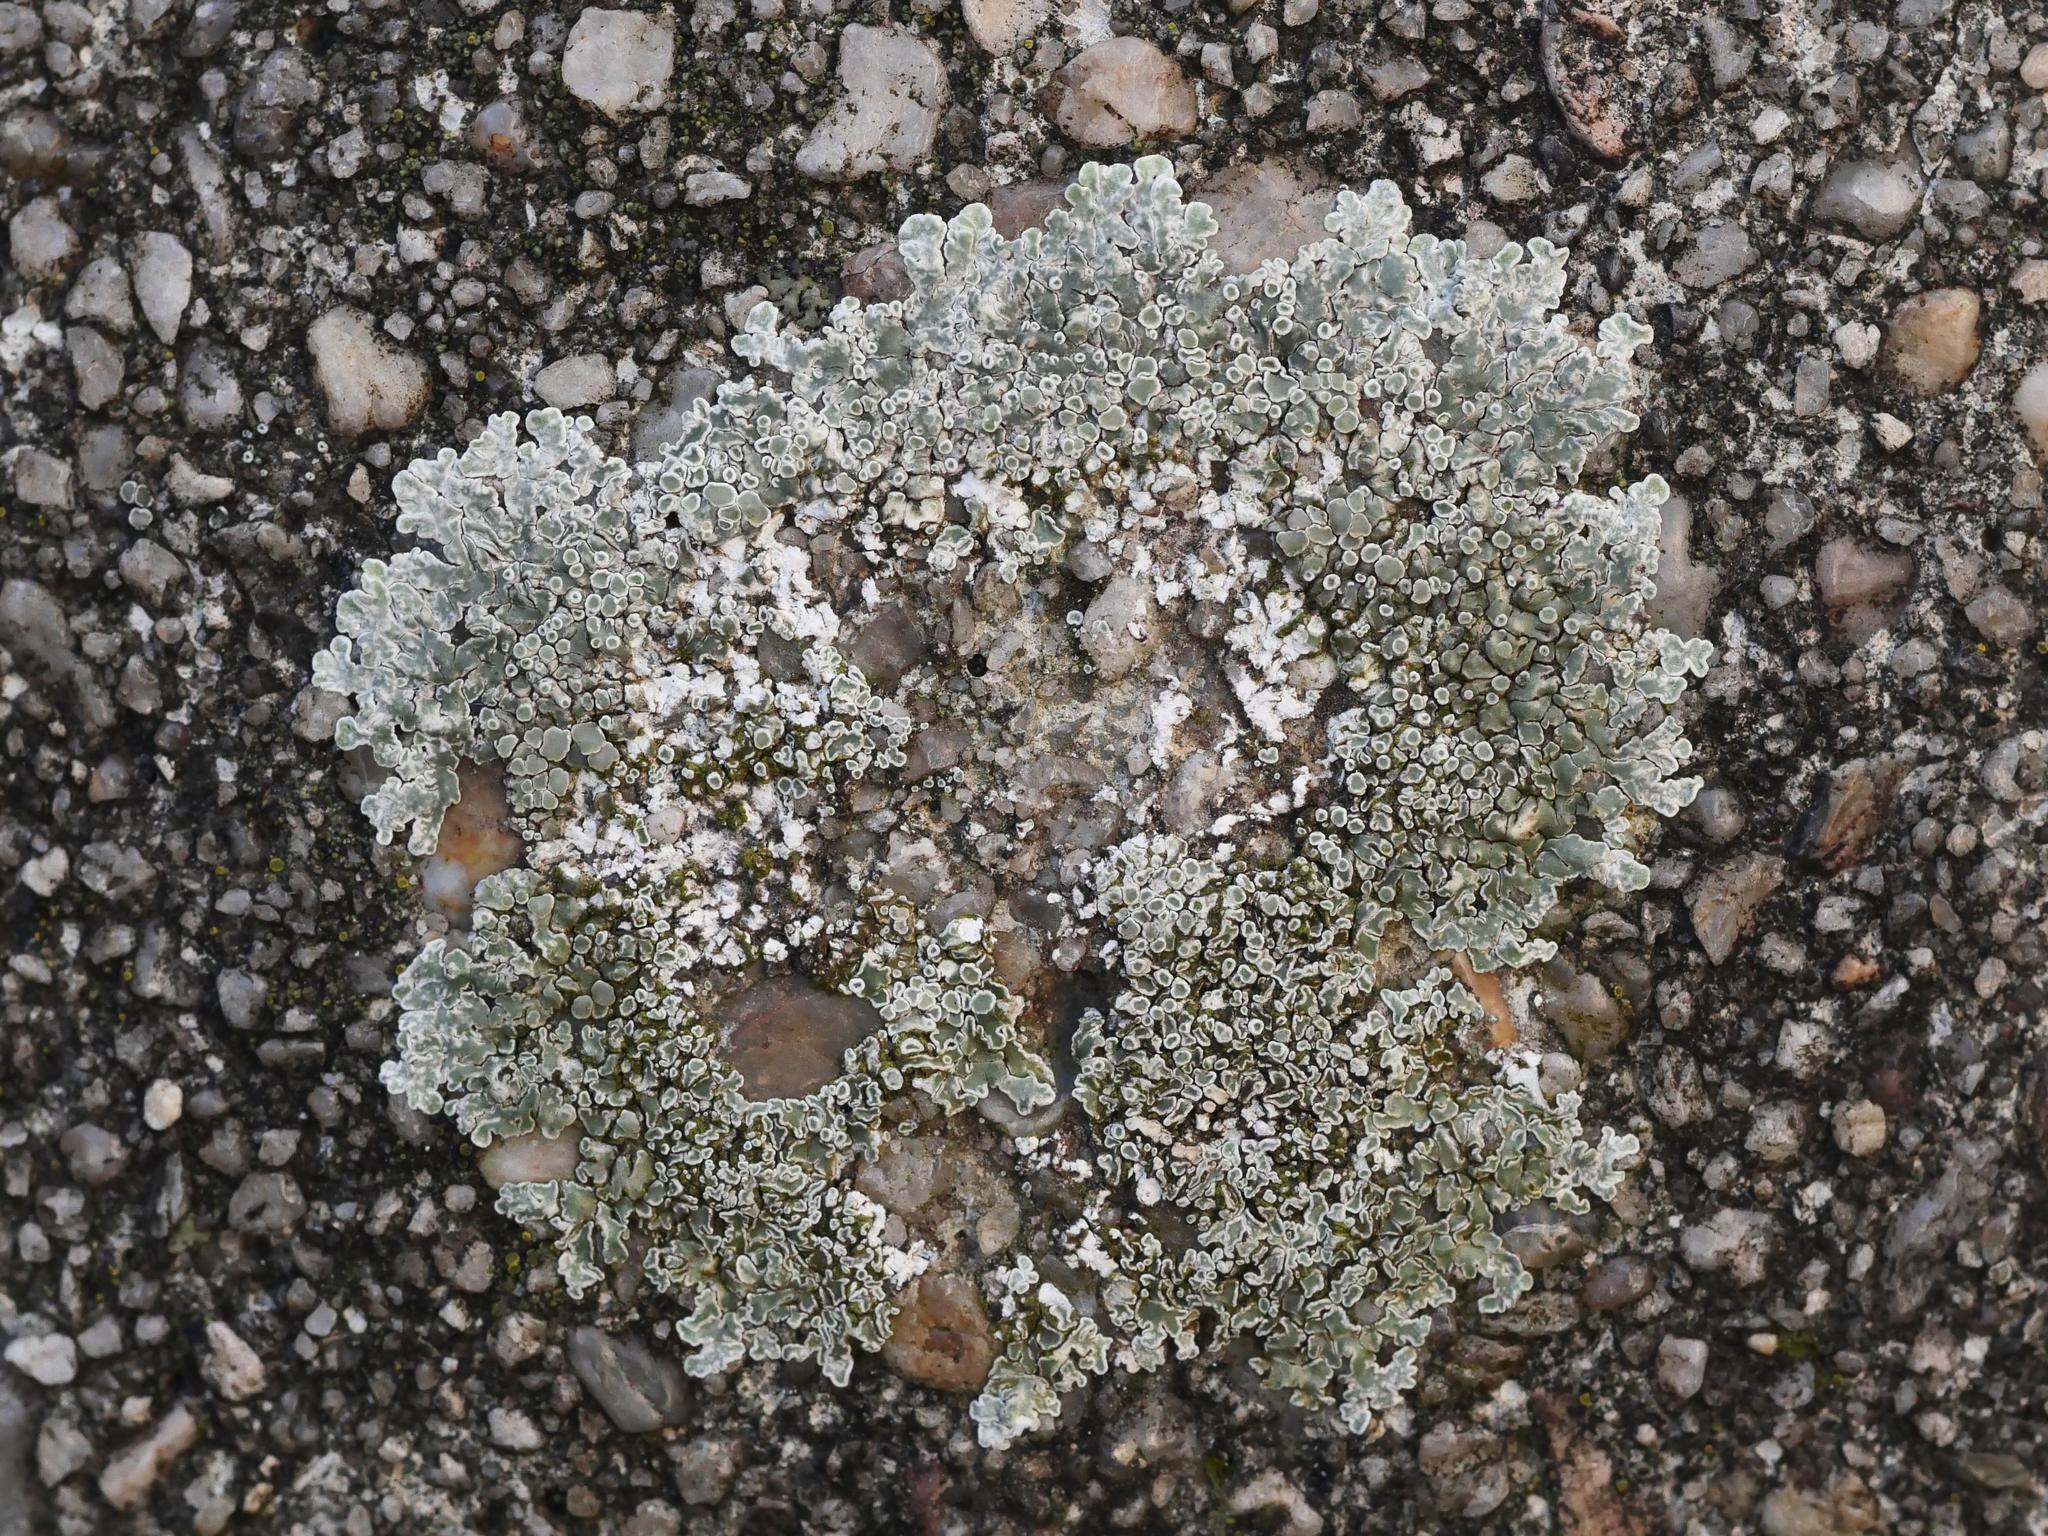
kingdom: Fungi
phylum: Ascomycota
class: Lecanoromycetes
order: Lecanorales
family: Lecanoraceae
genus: Protoparmeliopsis
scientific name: Protoparmeliopsis muralis
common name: Stonewall rim lichen
